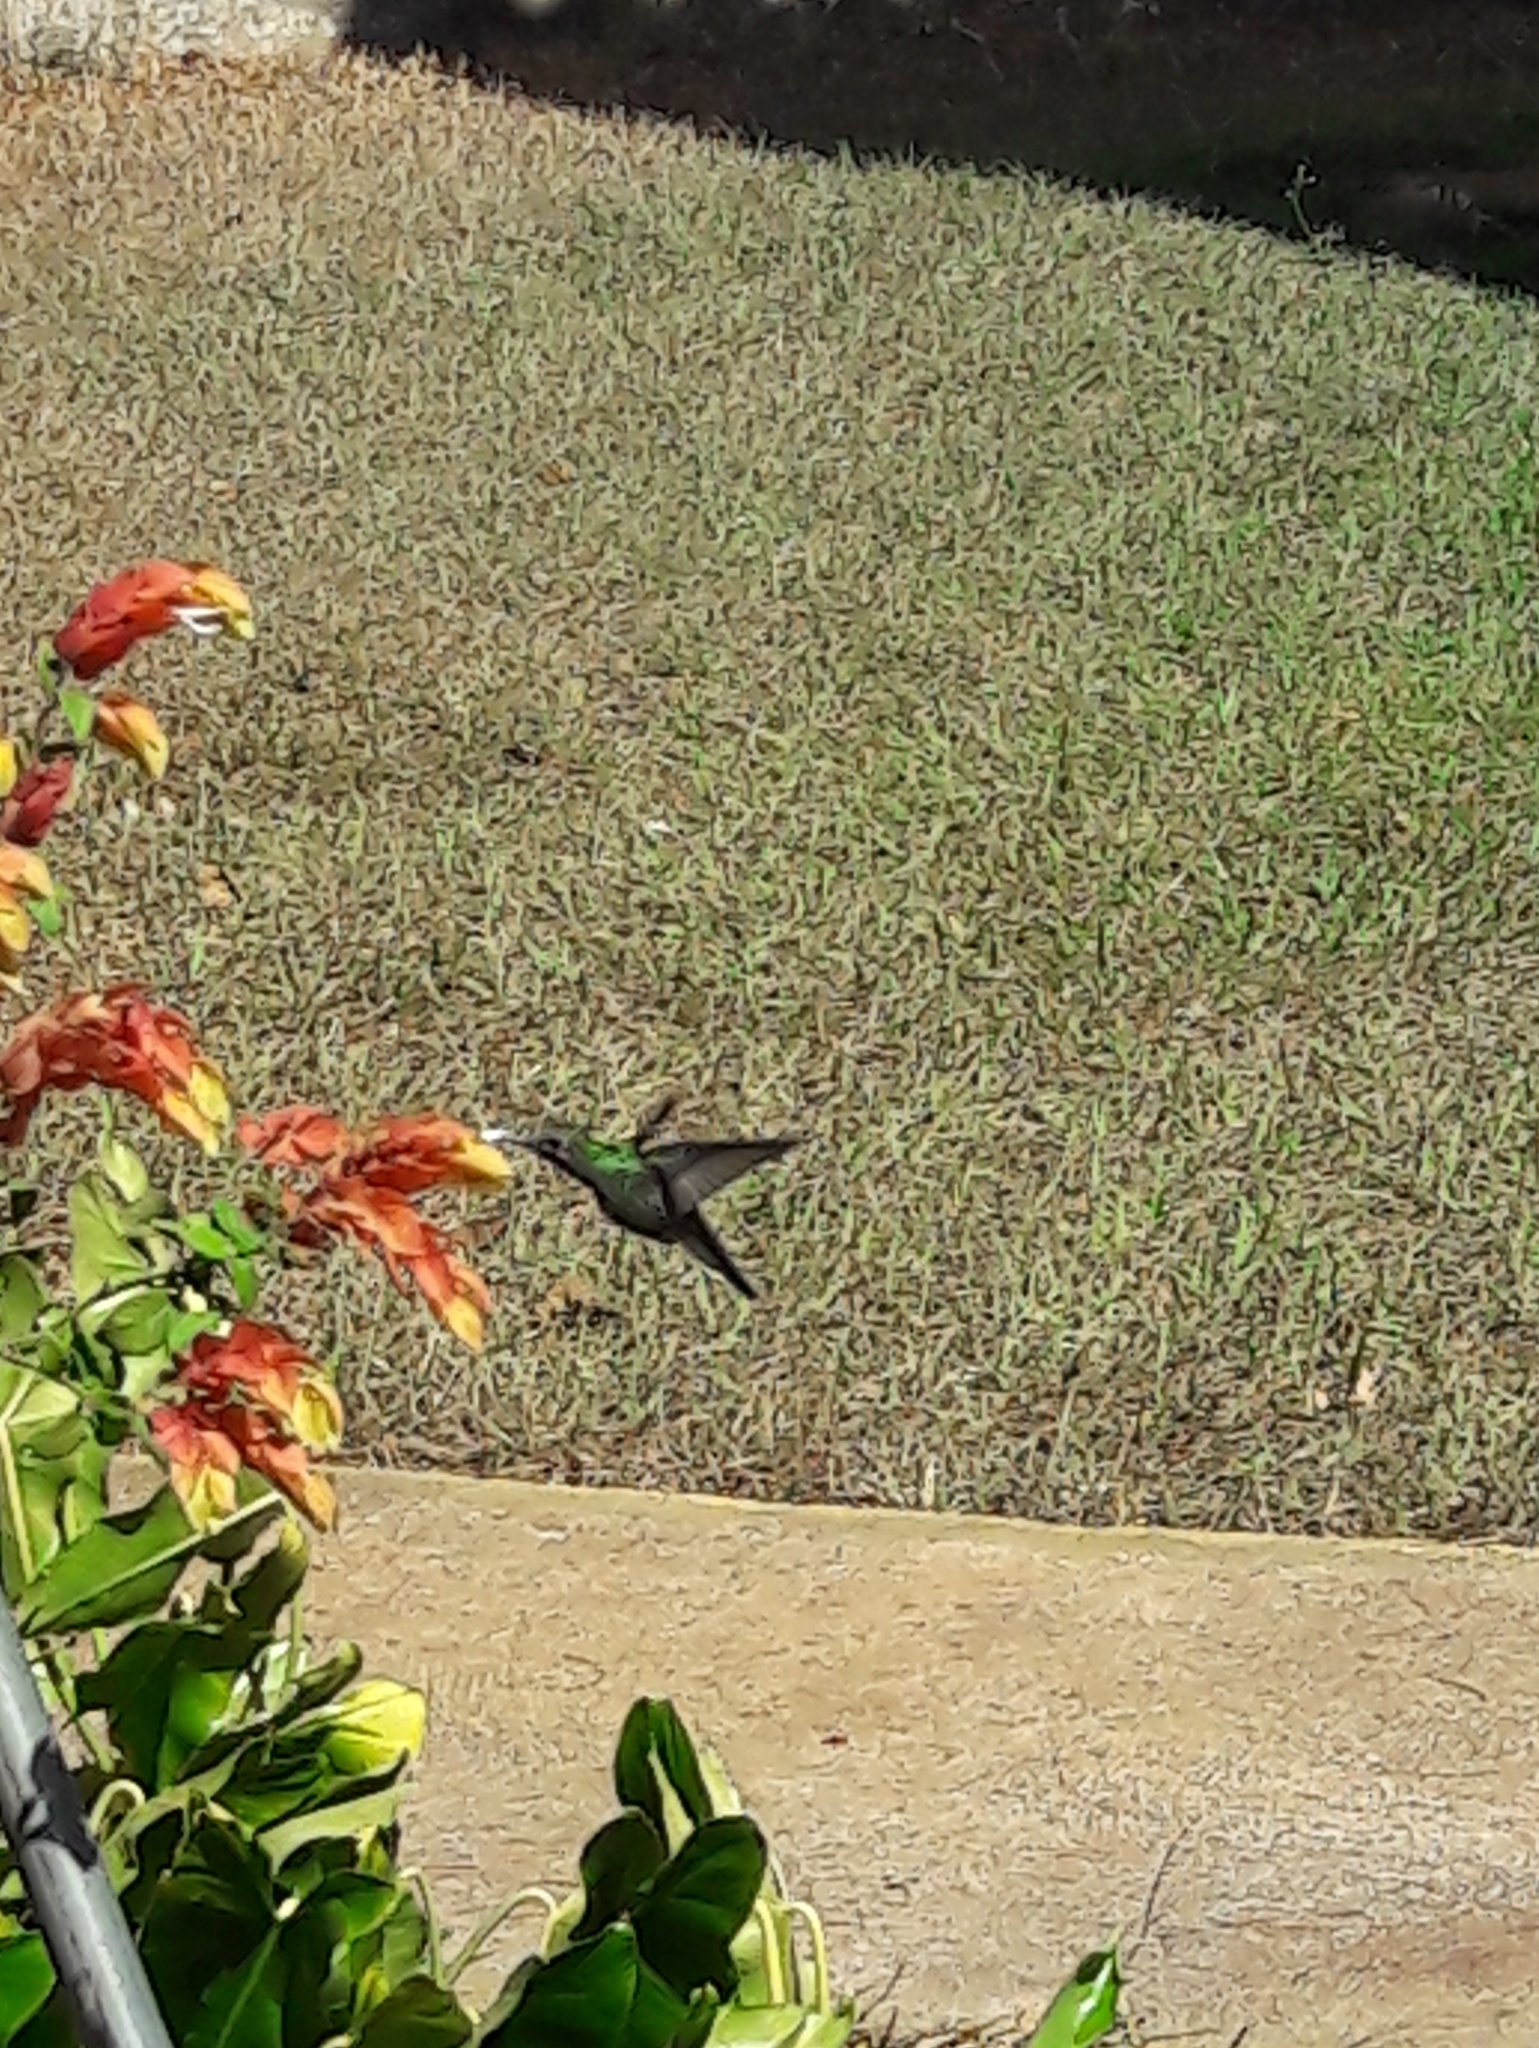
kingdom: Animalia
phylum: Chordata
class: Aves
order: Apodiformes
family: Trochilidae
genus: Chionomesa
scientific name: Chionomesa fimbriata
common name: Glittering-throated emerald
